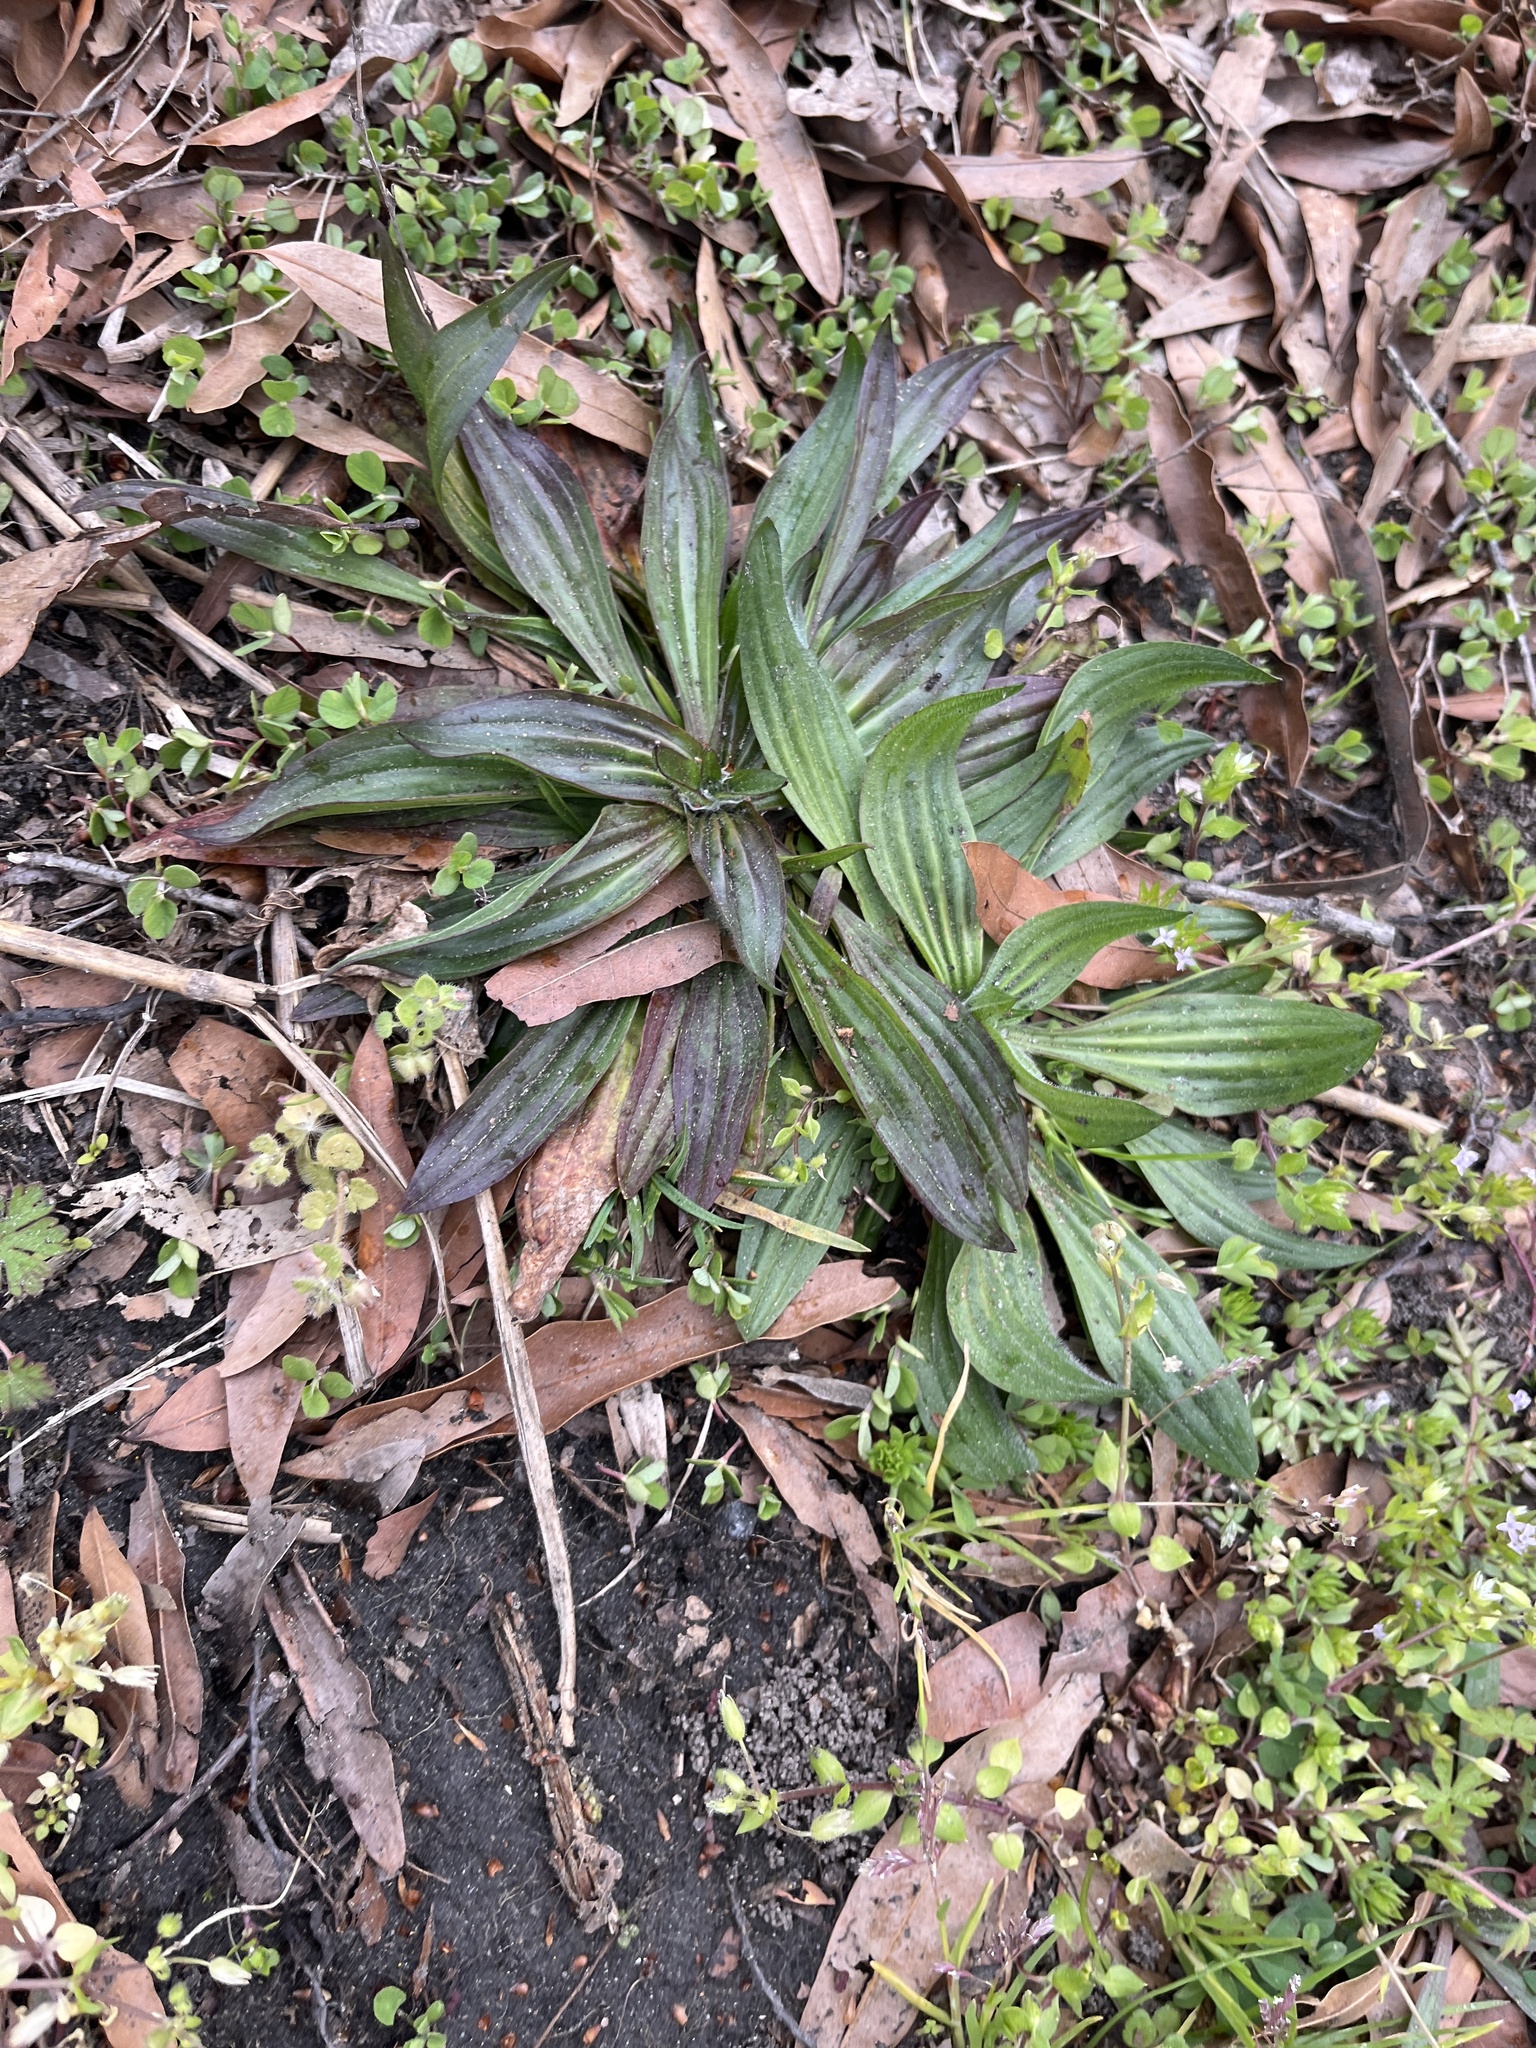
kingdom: Plantae
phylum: Tracheophyta
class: Magnoliopsida
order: Lamiales
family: Plantaginaceae
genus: Plantago
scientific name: Plantago lanceolata
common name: Ribwort plantain
